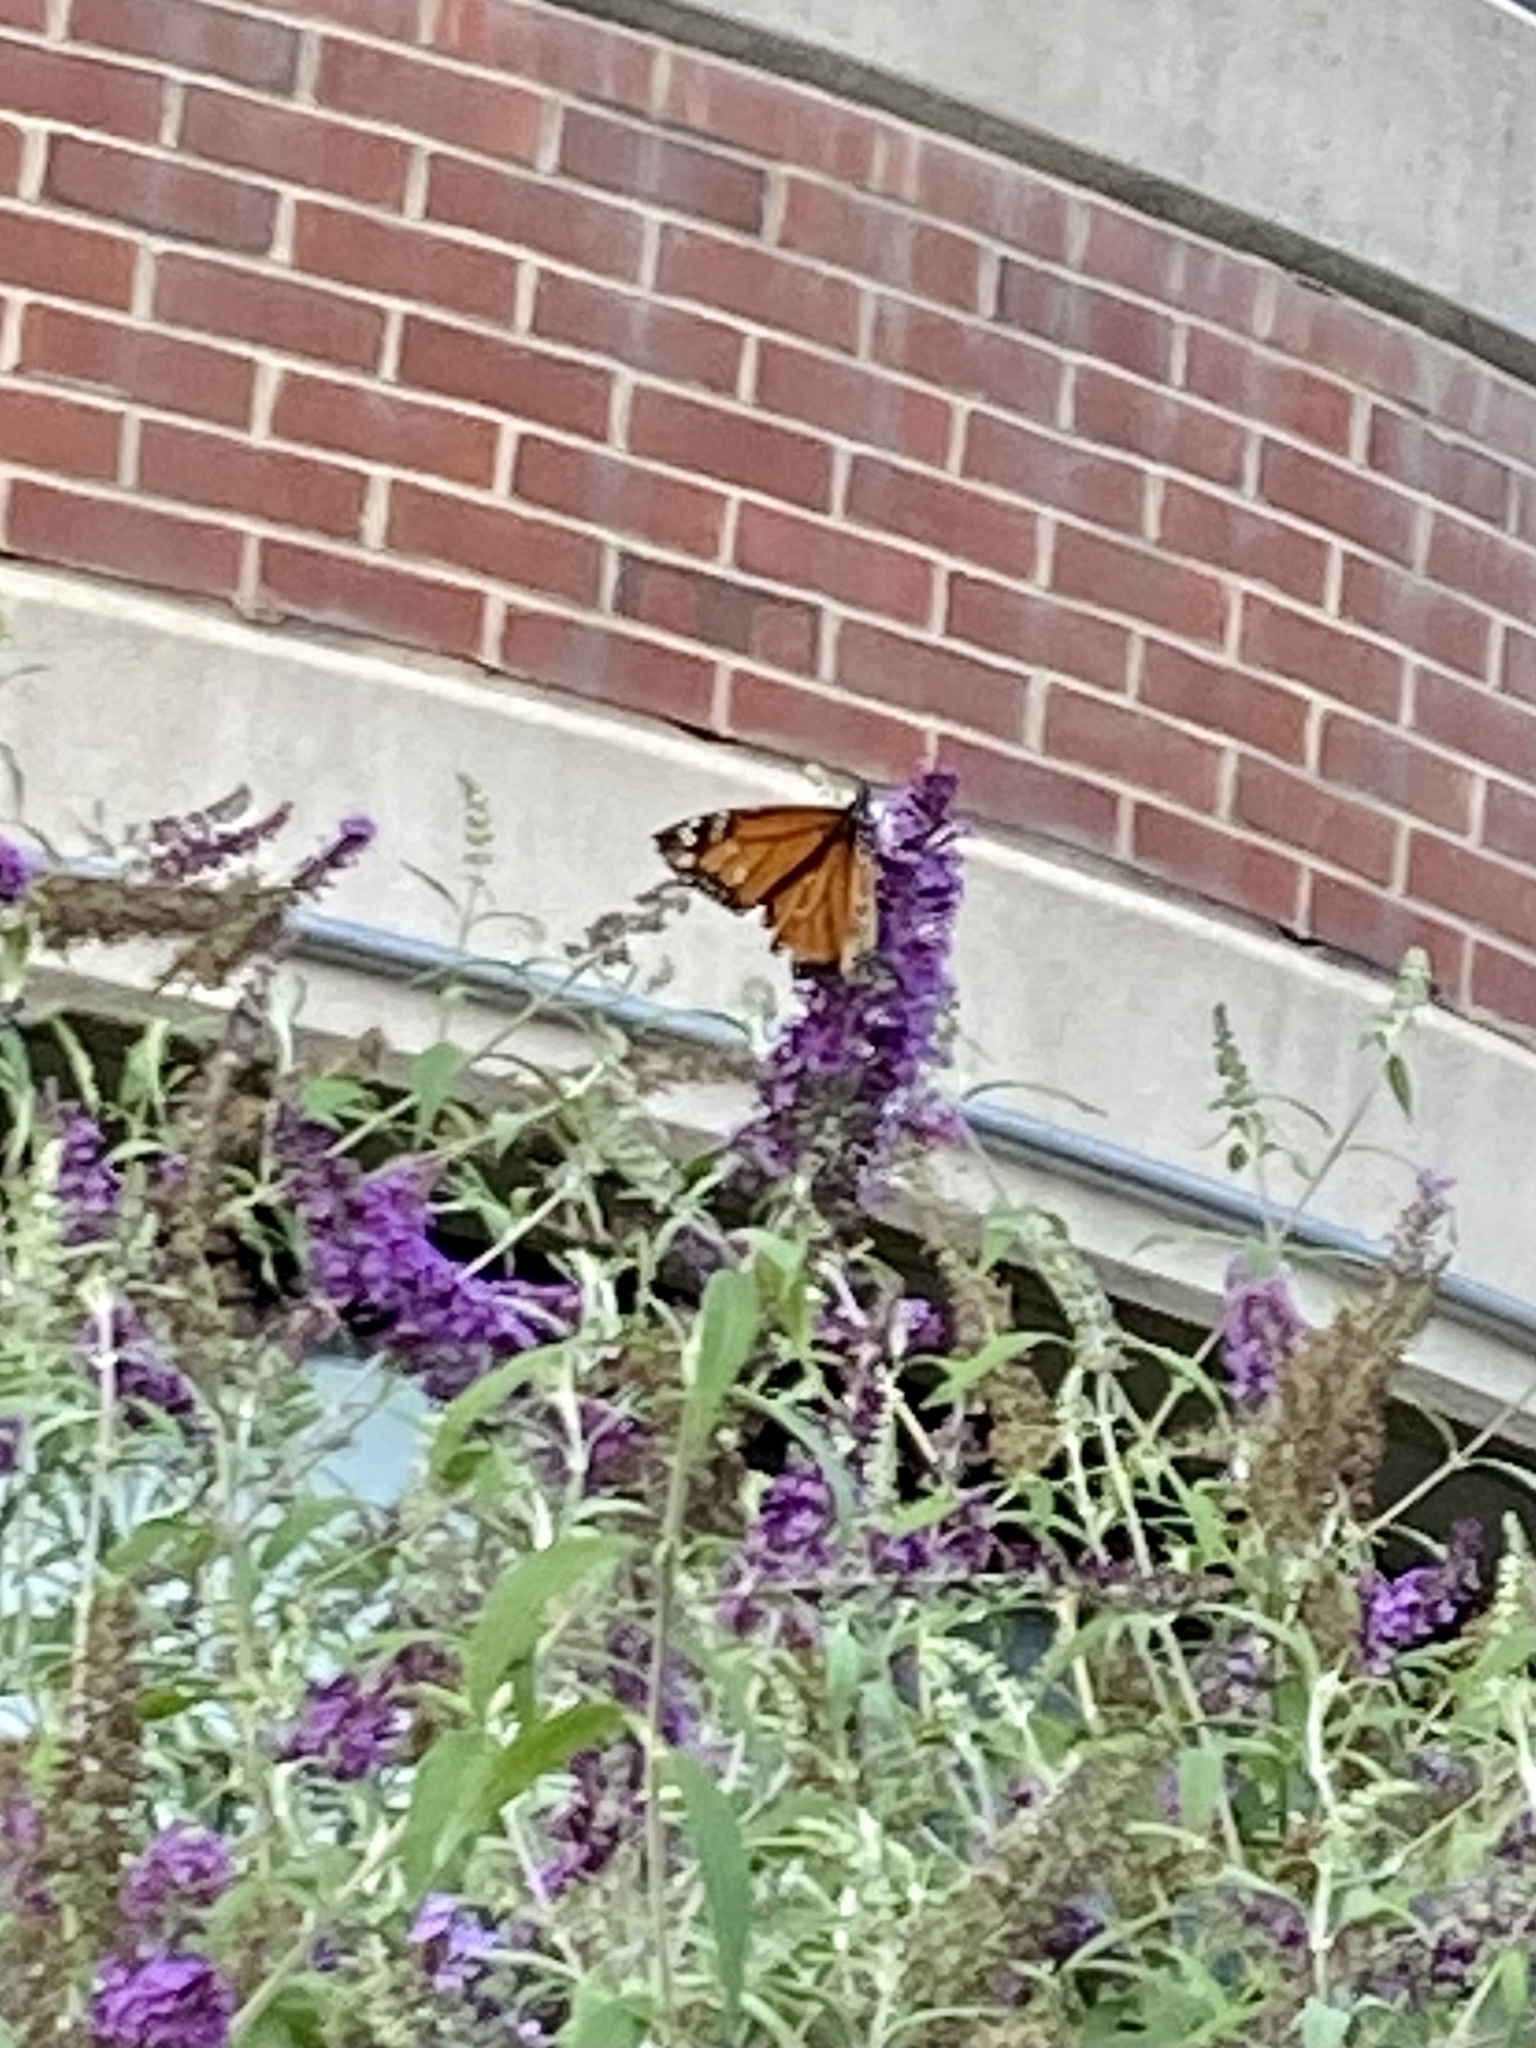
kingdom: Animalia
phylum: Arthropoda
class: Insecta
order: Lepidoptera
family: Nymphalidae
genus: Danaus
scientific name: Danaus plexippus
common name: Monarch
